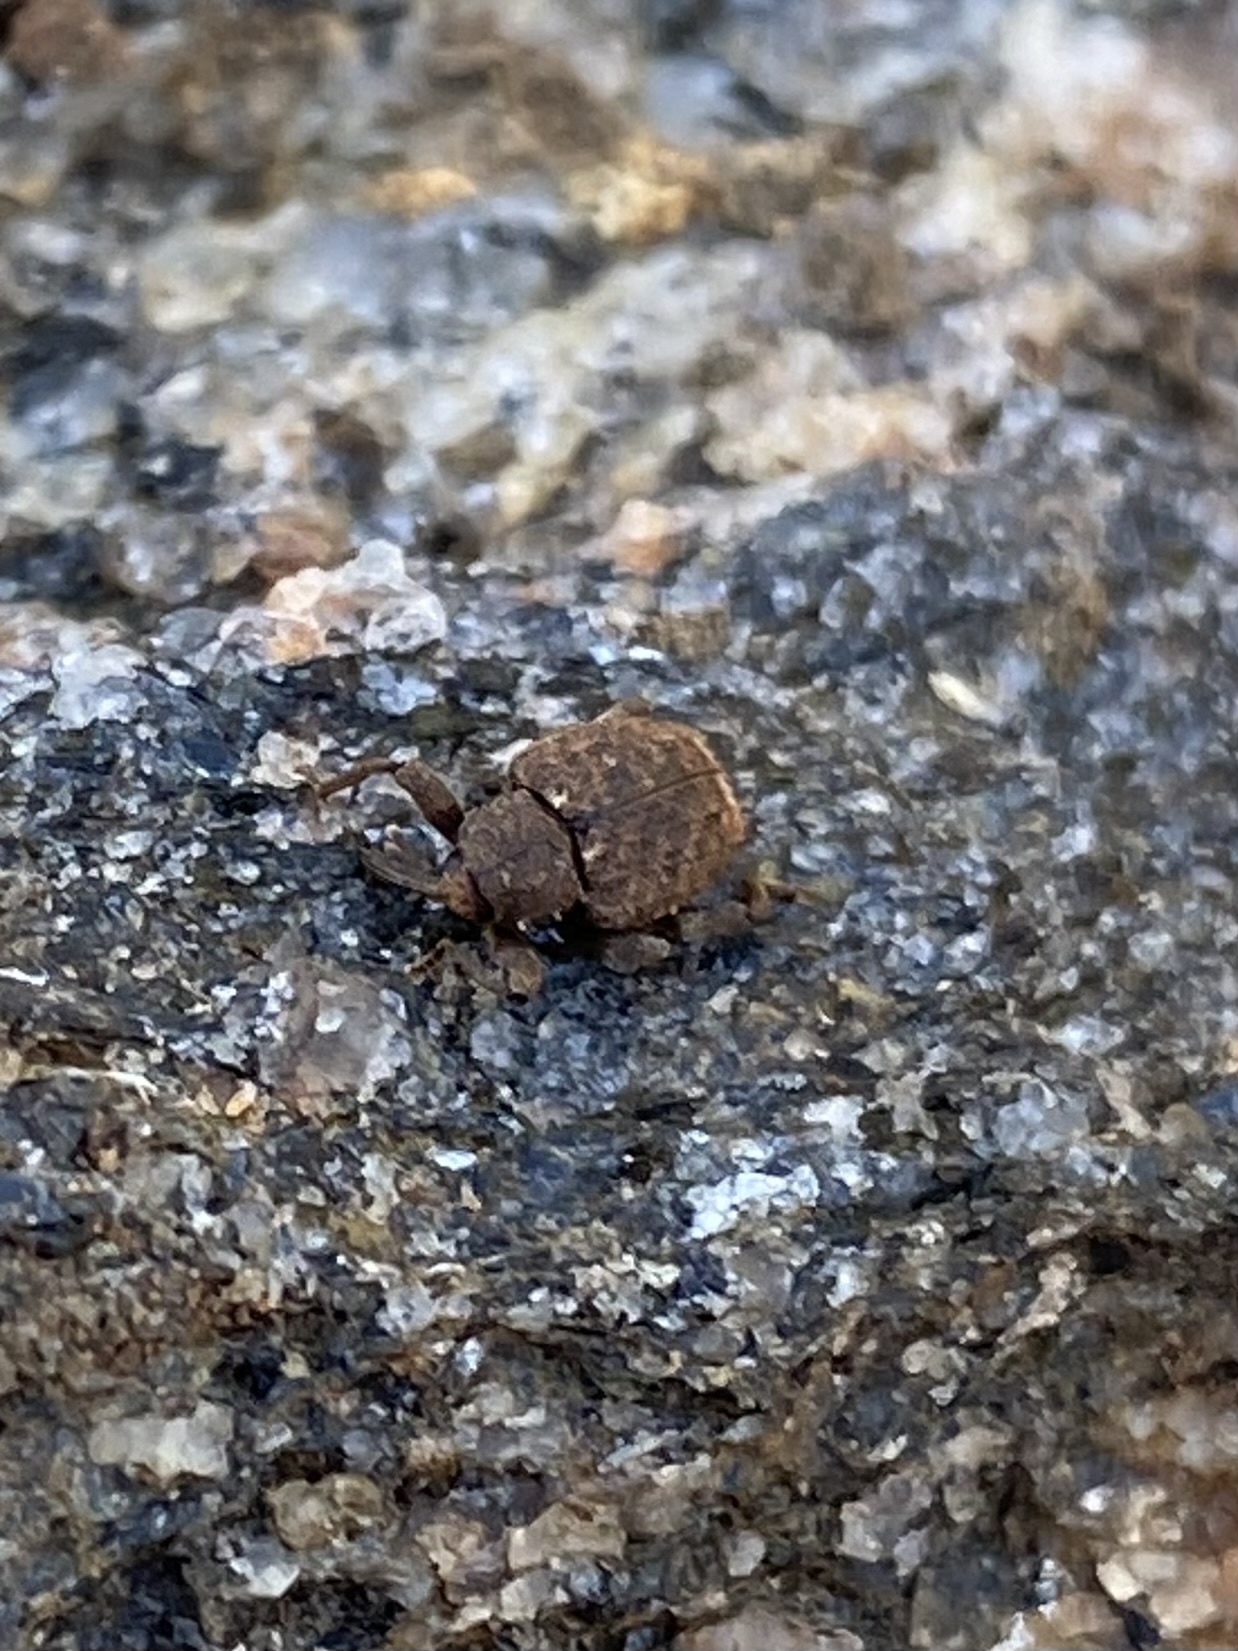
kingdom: Animalia
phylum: Arthropoda
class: Insecta
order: Coleoptera
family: Curculionidae
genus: Conotrachelus
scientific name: Conotrachelus posticatus
